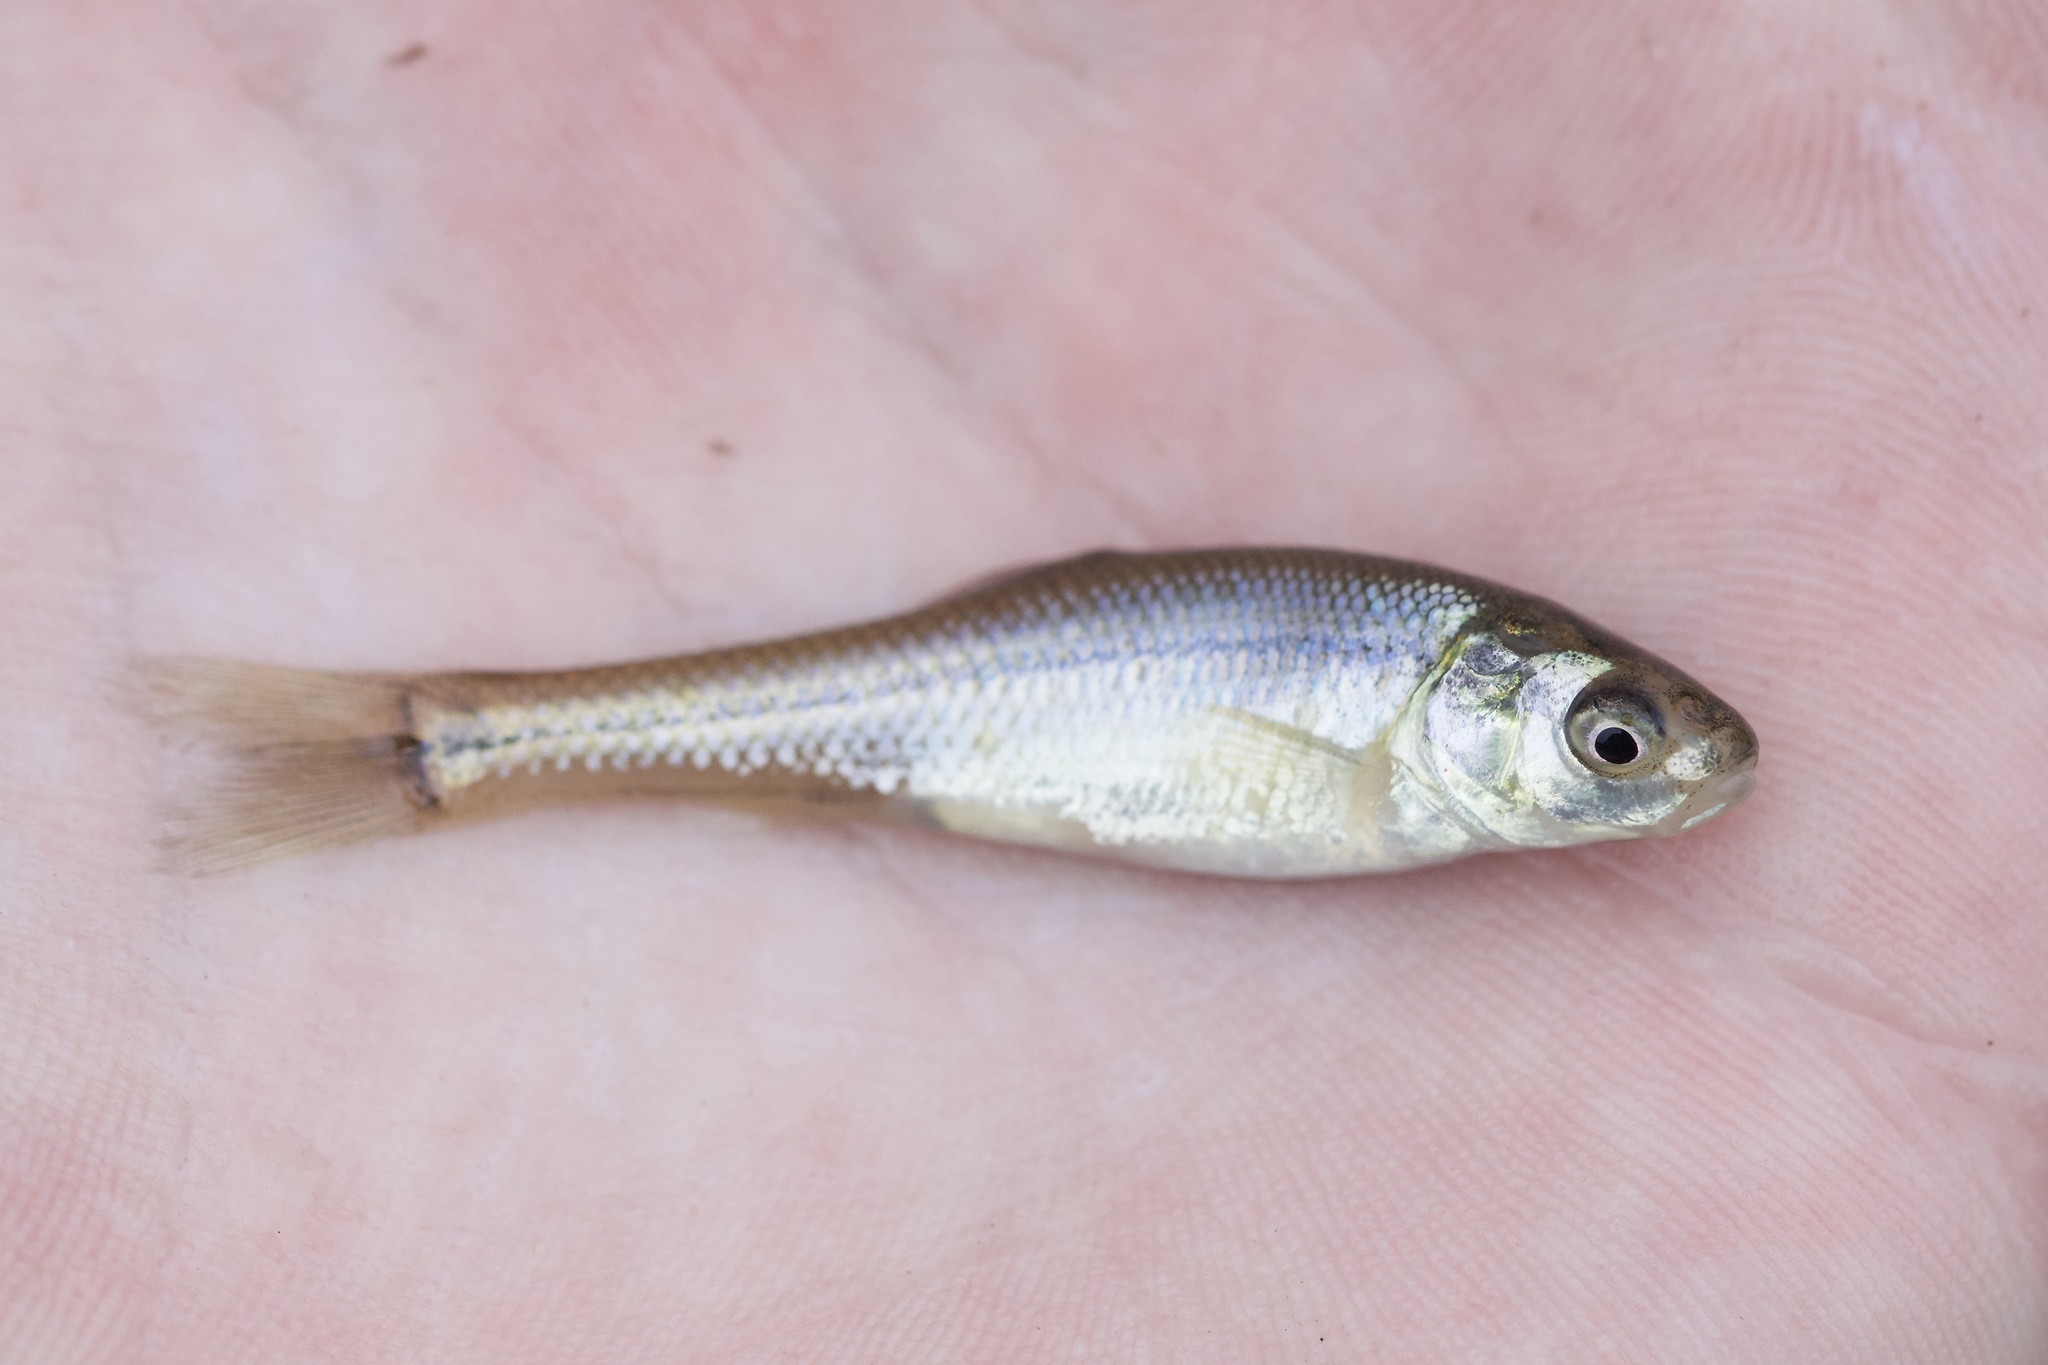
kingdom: Animalia
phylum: Chordata
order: Cypriniformes
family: Cyprinidae
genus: Pimephales
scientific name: Pimephales promelas
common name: Fathead minnow
